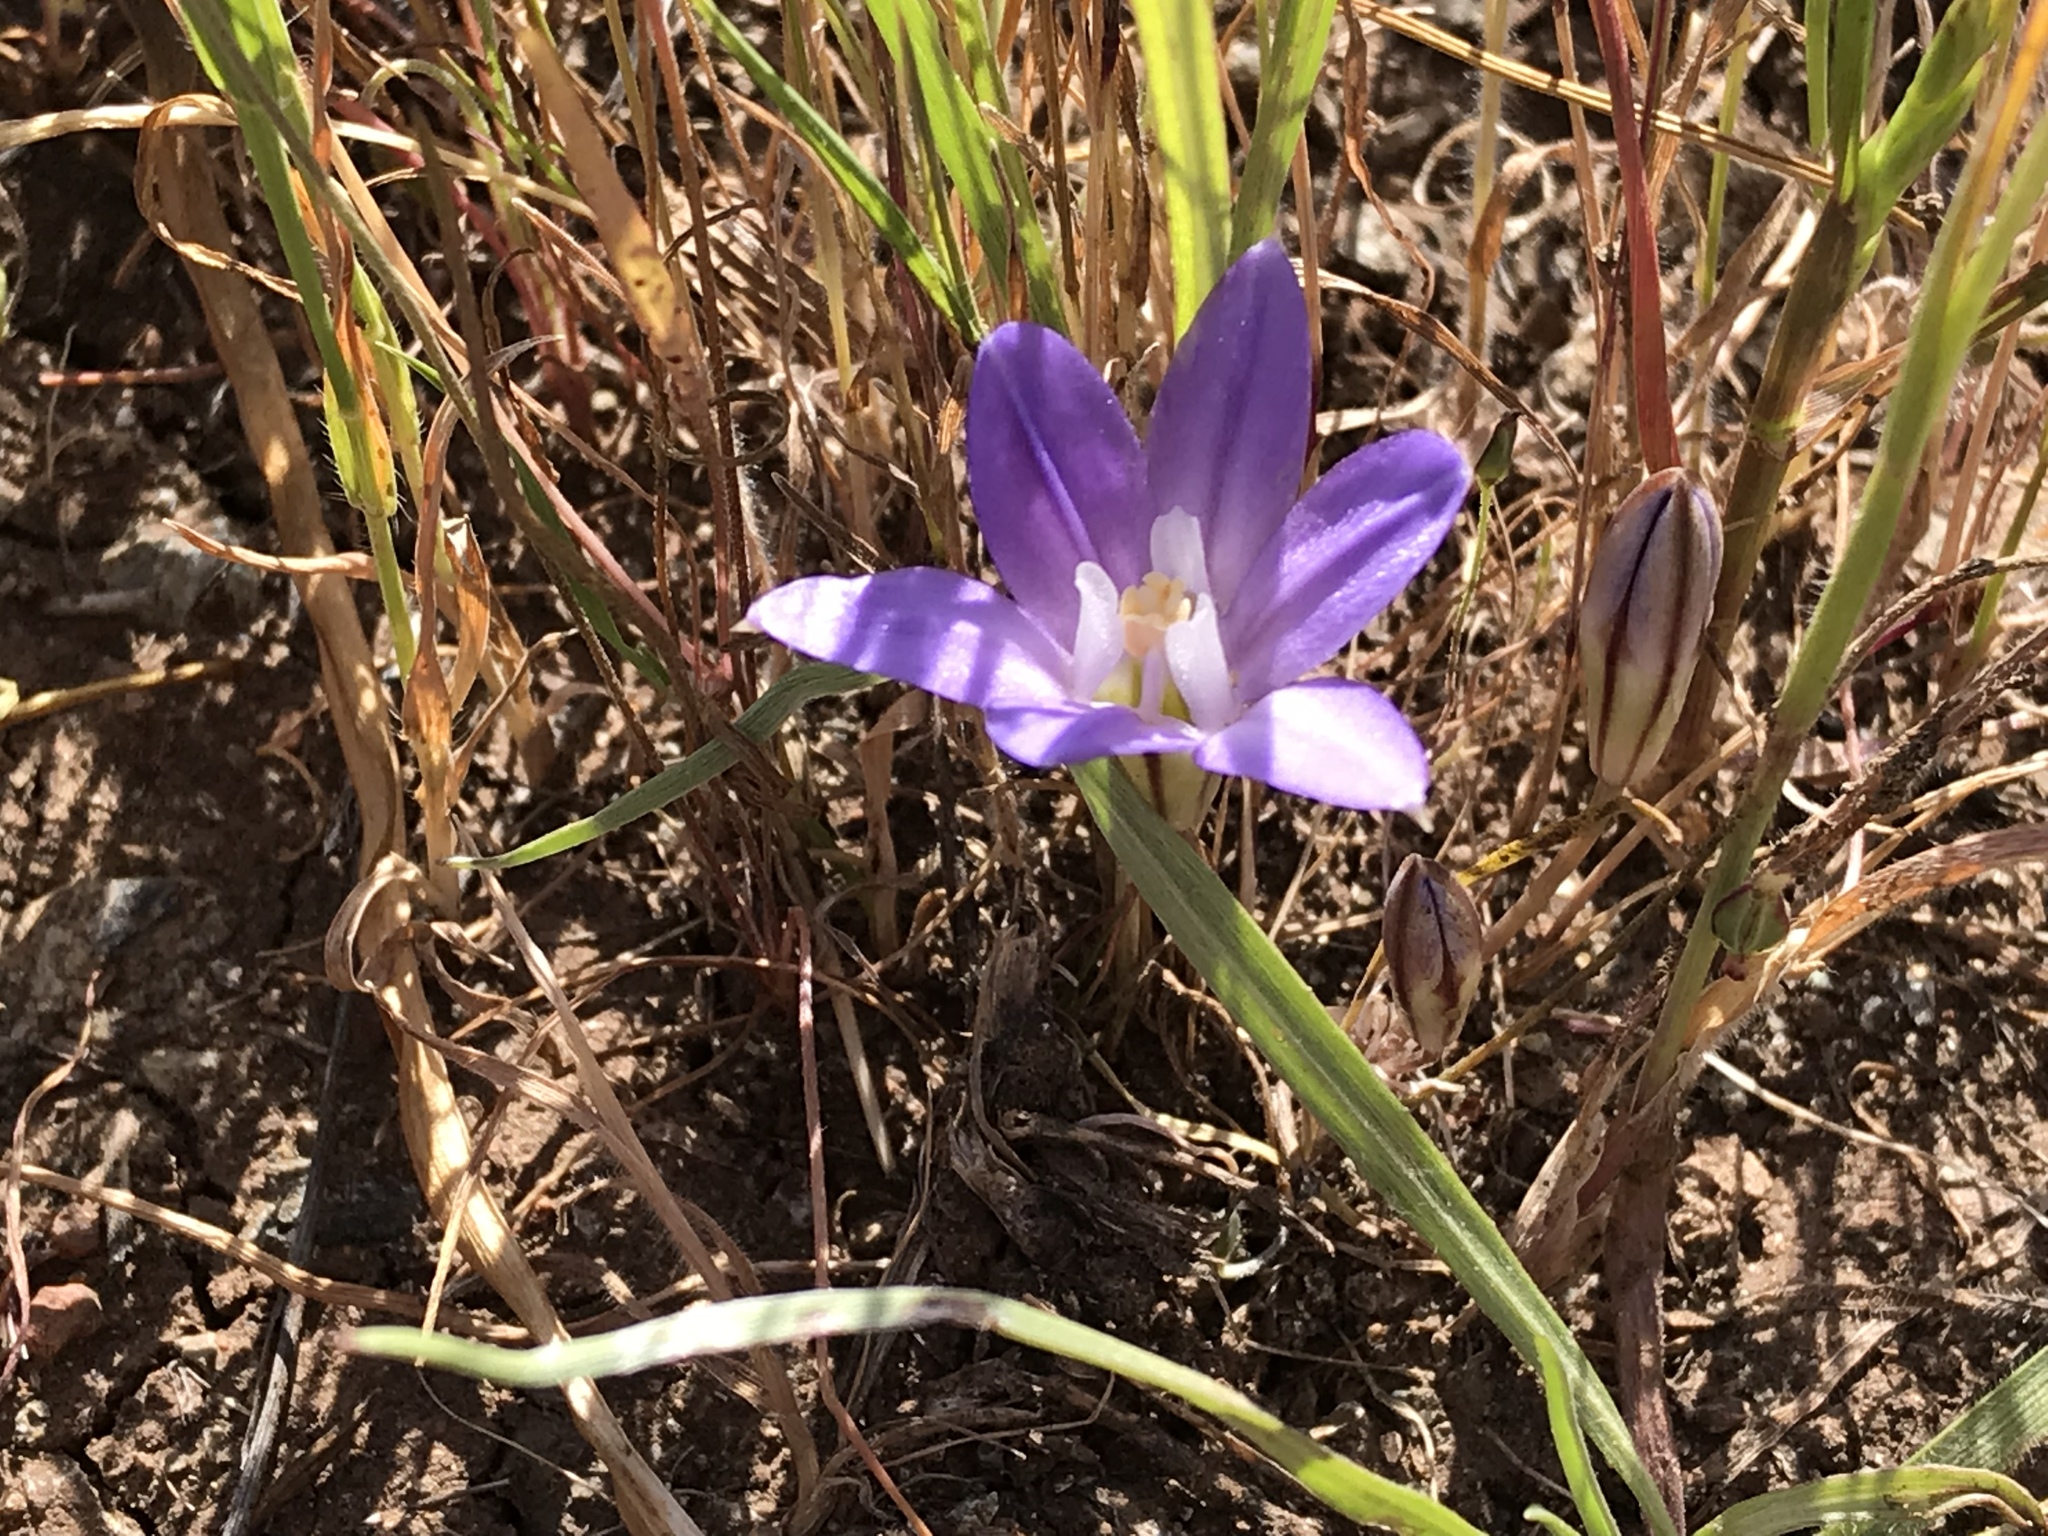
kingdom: Plantae
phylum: Tracheophyta
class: Liliopsida
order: Asparagales
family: Asparagaceae
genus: Brodiaea
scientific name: Brodiaea terrestris
